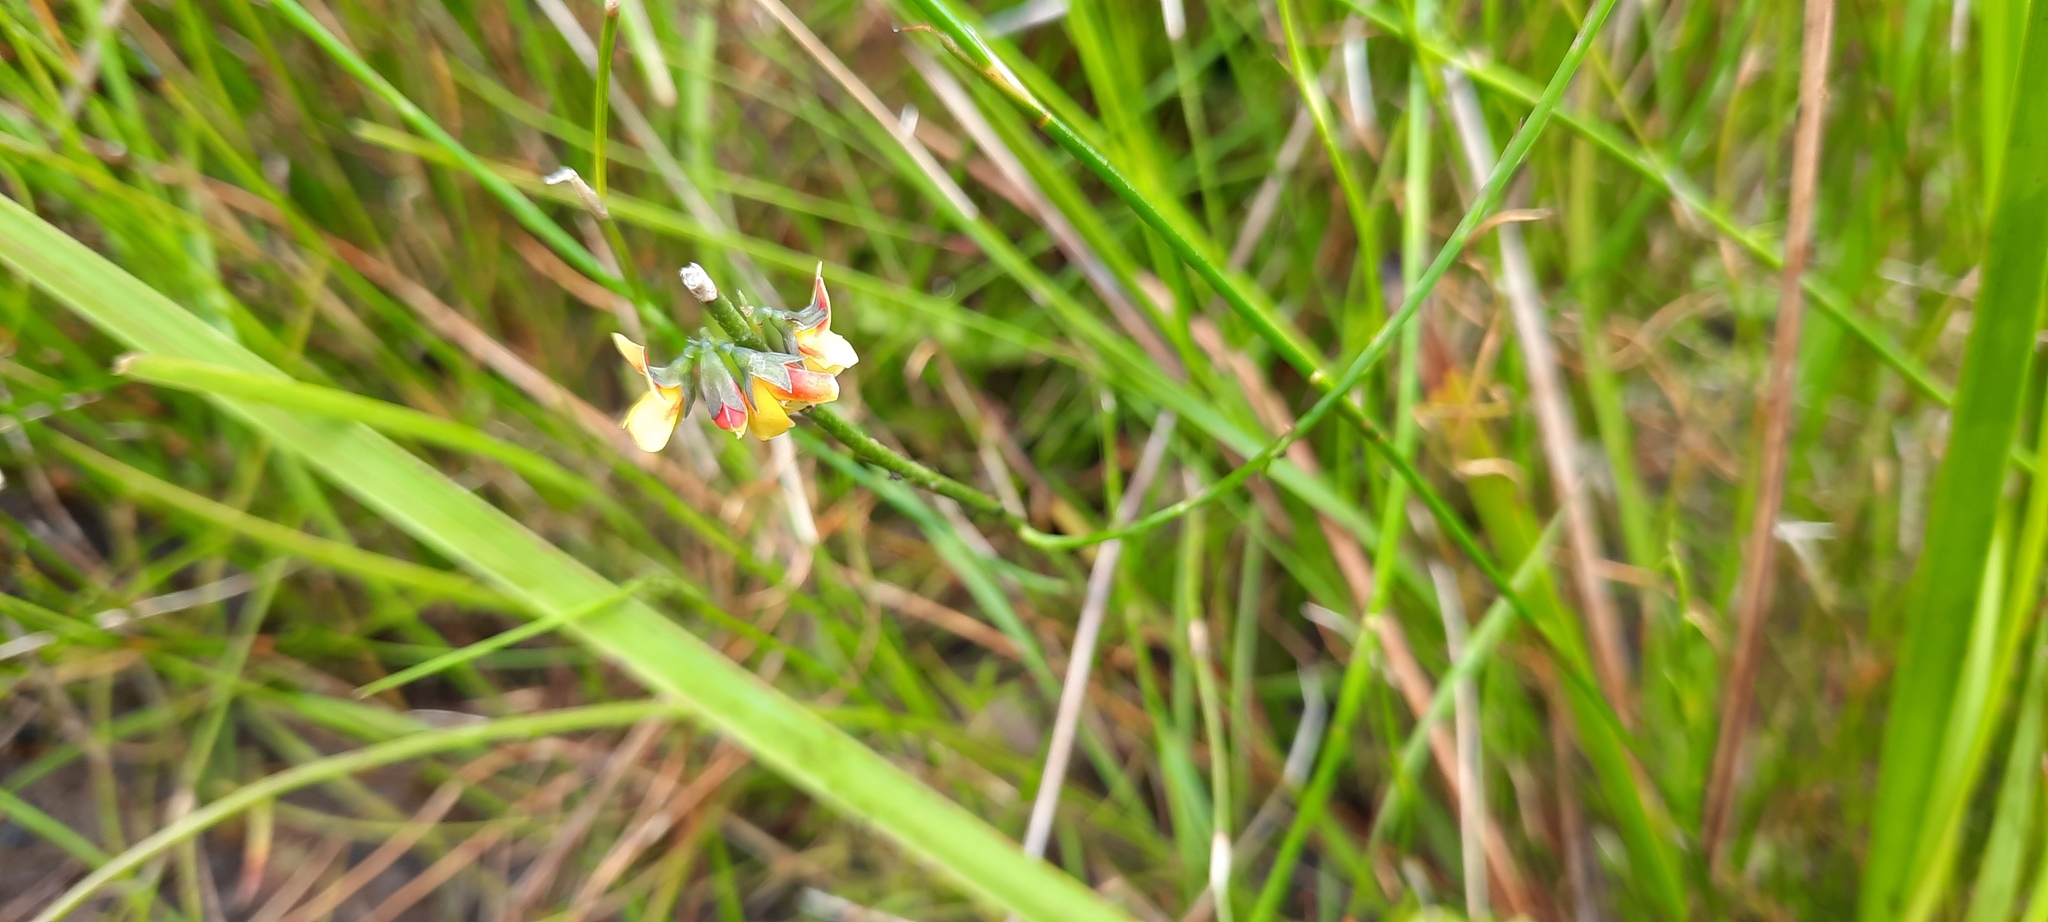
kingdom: Plantae
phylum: Tracheophyta
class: Magnoliopsida
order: Fabales
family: Fabaceae
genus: Sphaerolobium
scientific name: Sphaerolobium minus
